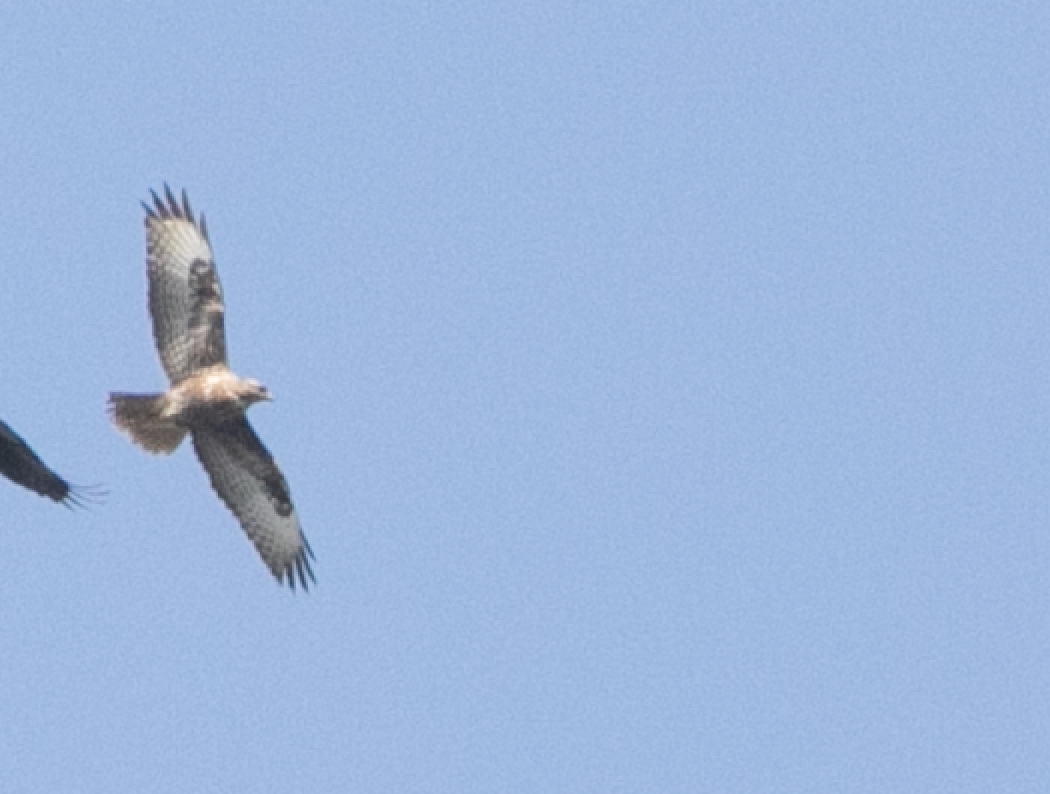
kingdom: Animalia
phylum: Chordata
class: Aves
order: Accipitriformes
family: Accipitridae
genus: Buteo
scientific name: Buteo buteo
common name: Common buzzard
